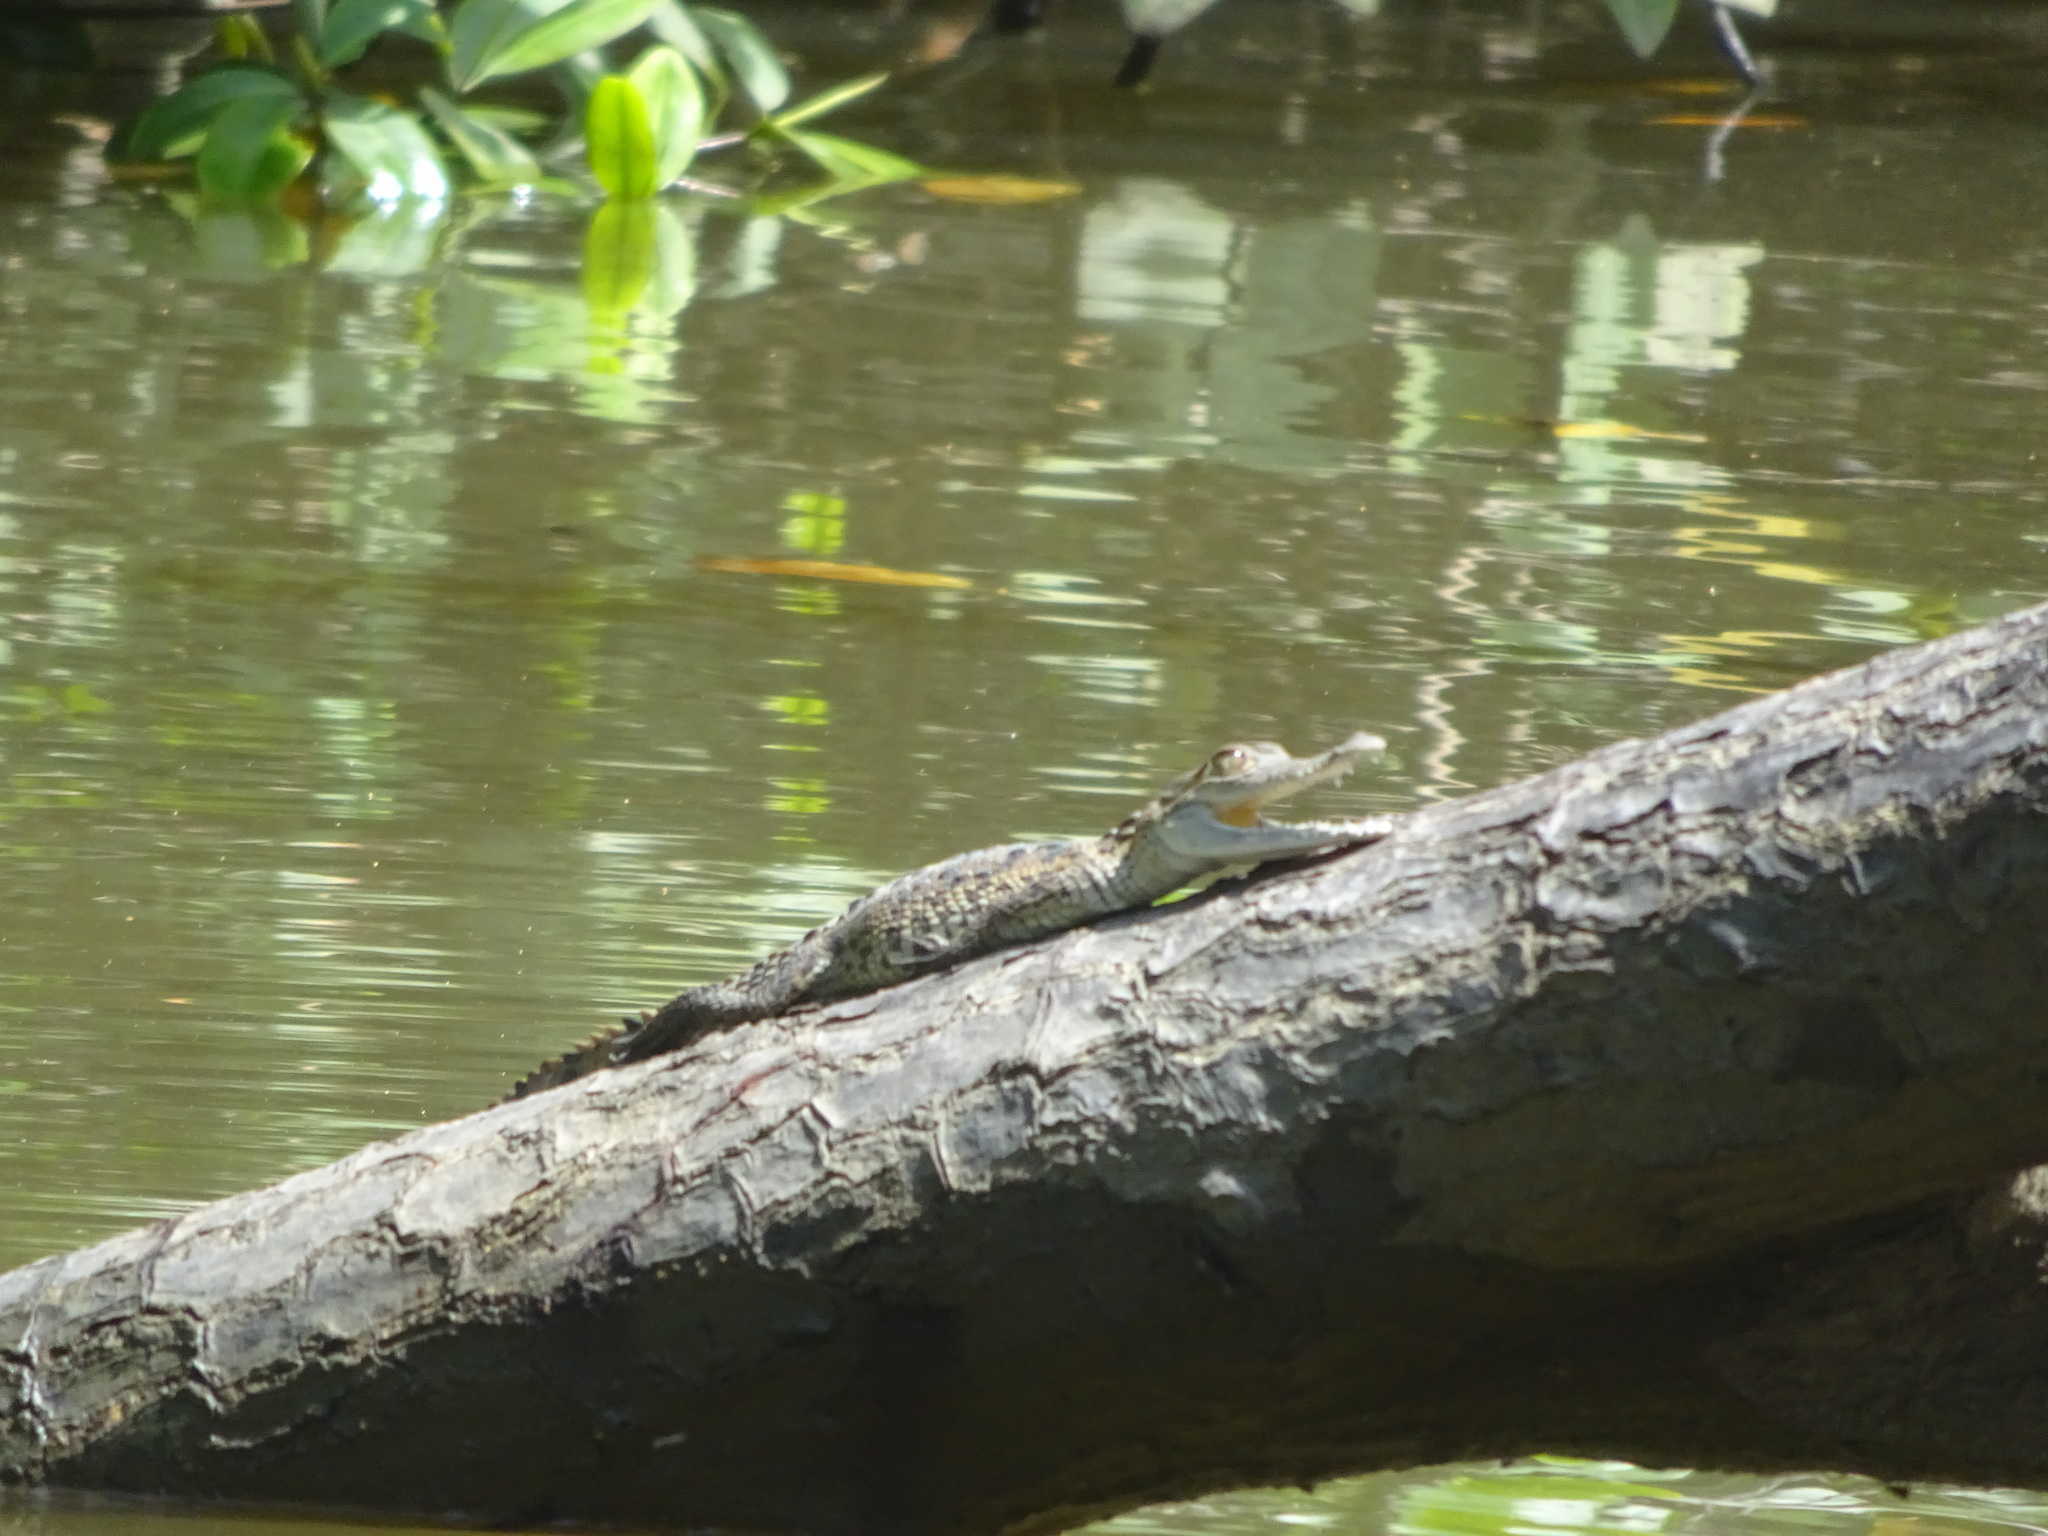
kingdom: Animalia
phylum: Chordata
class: Crocodylia
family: Crocodylidae
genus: Crocodylus
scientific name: Crocodylus acutus
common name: American crocodile
